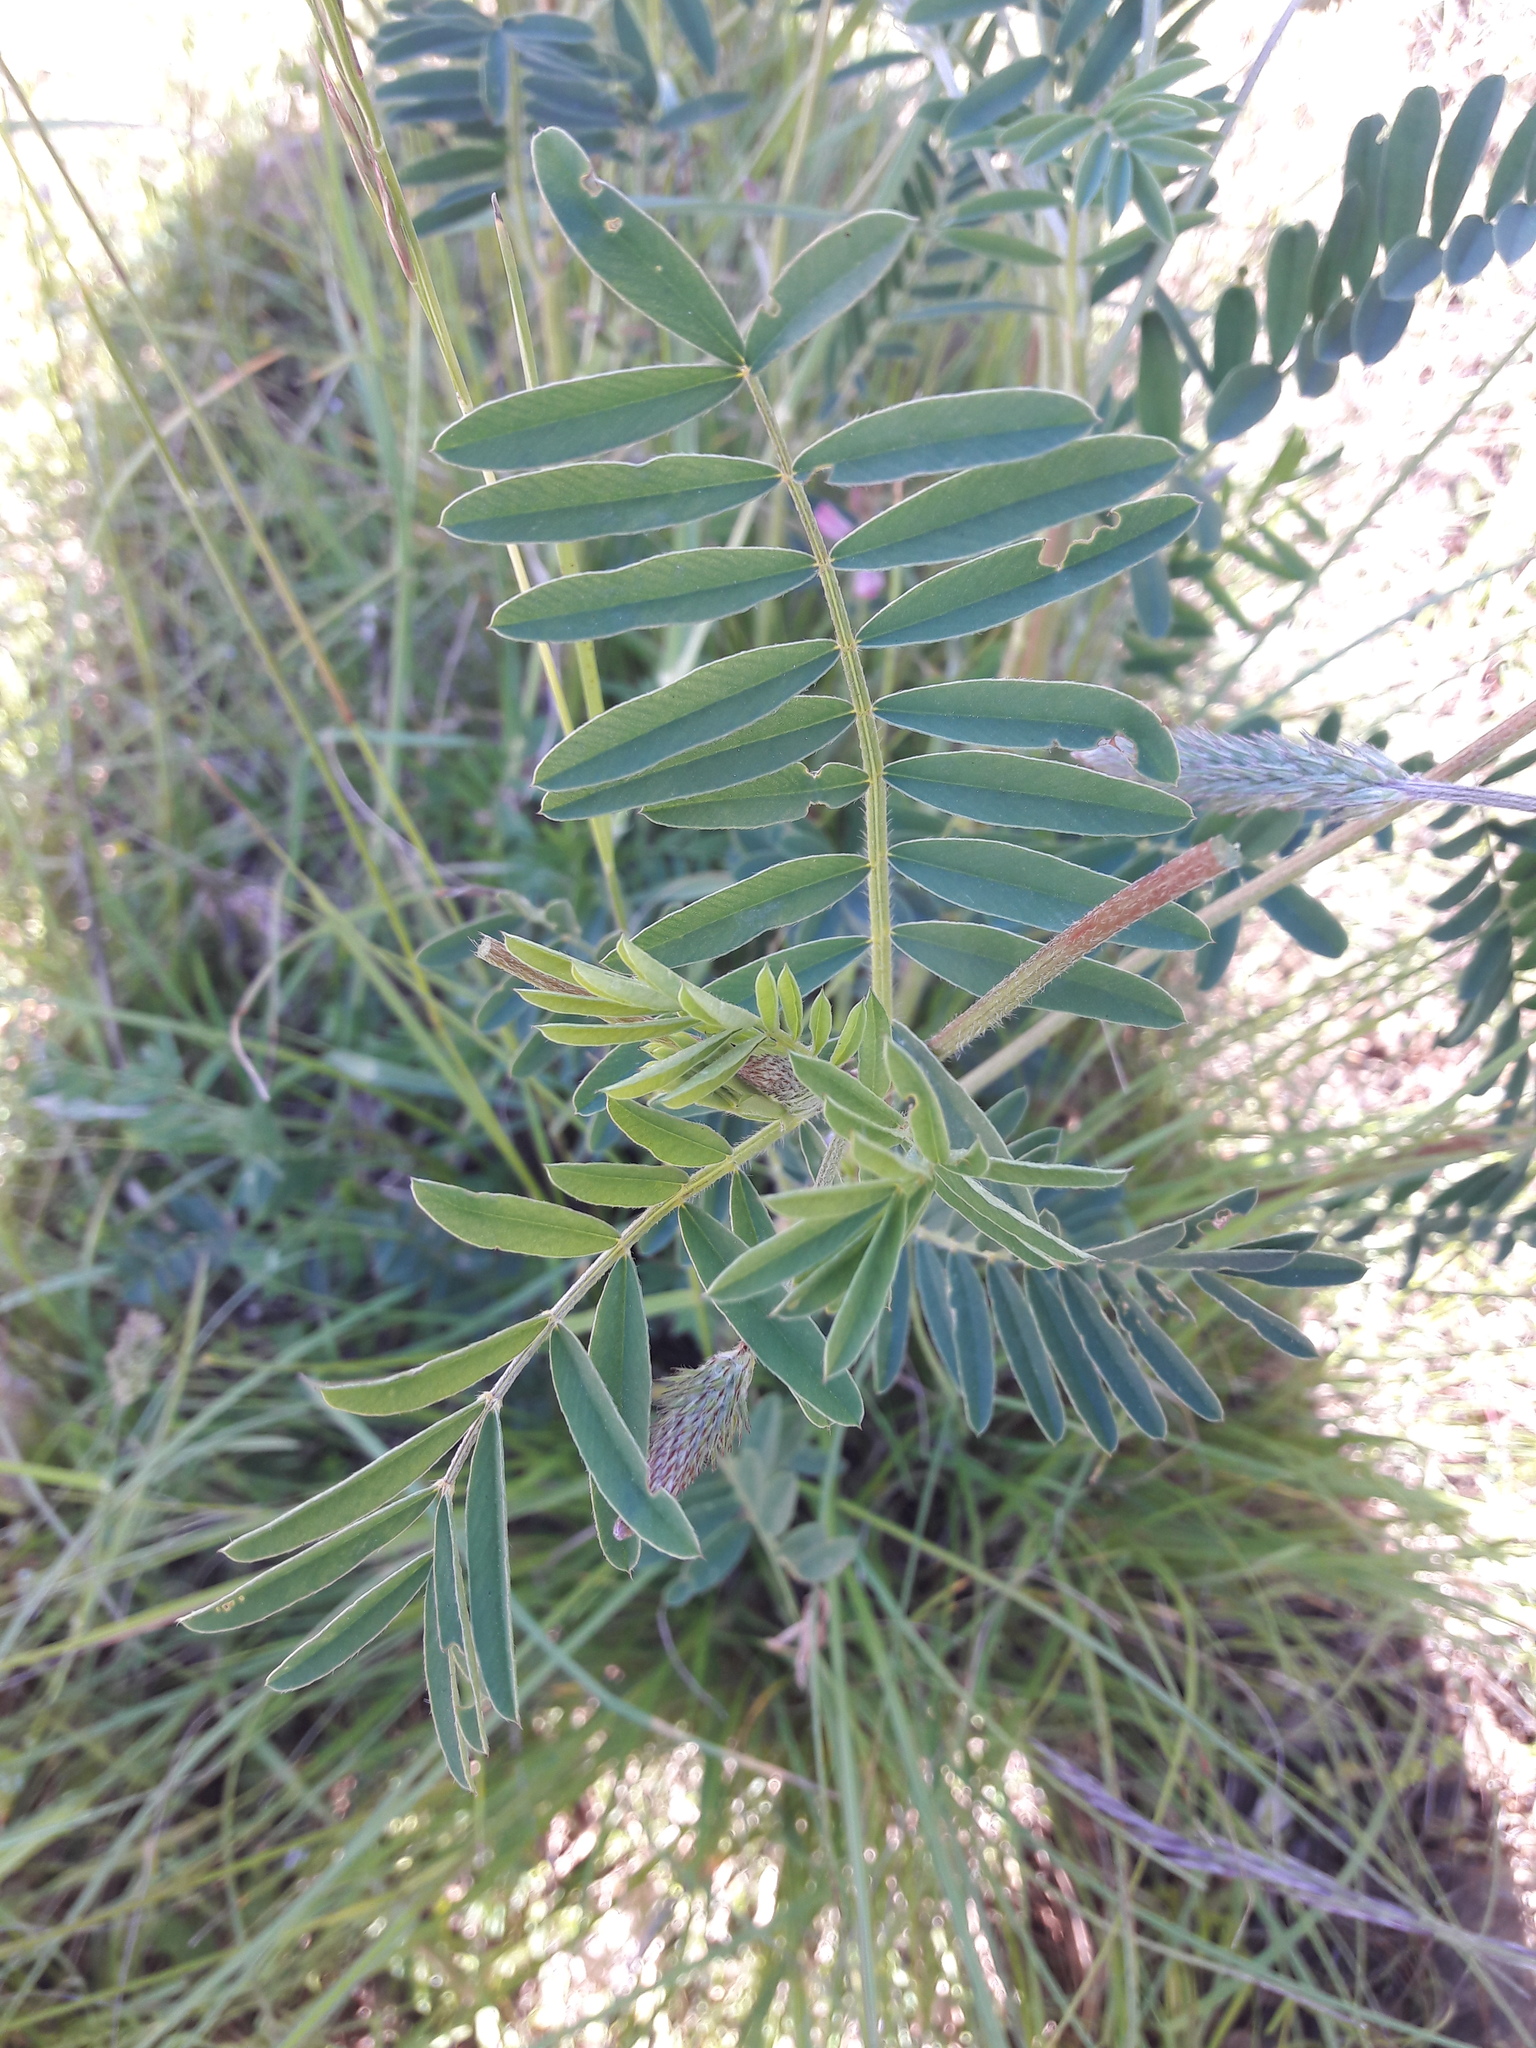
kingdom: Plantae
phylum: Tracheophyta
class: Magnoliopsida
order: Fabales
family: Fabaceae
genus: Onobrychis
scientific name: Onobrychis viciifolia
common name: Sainfoin
